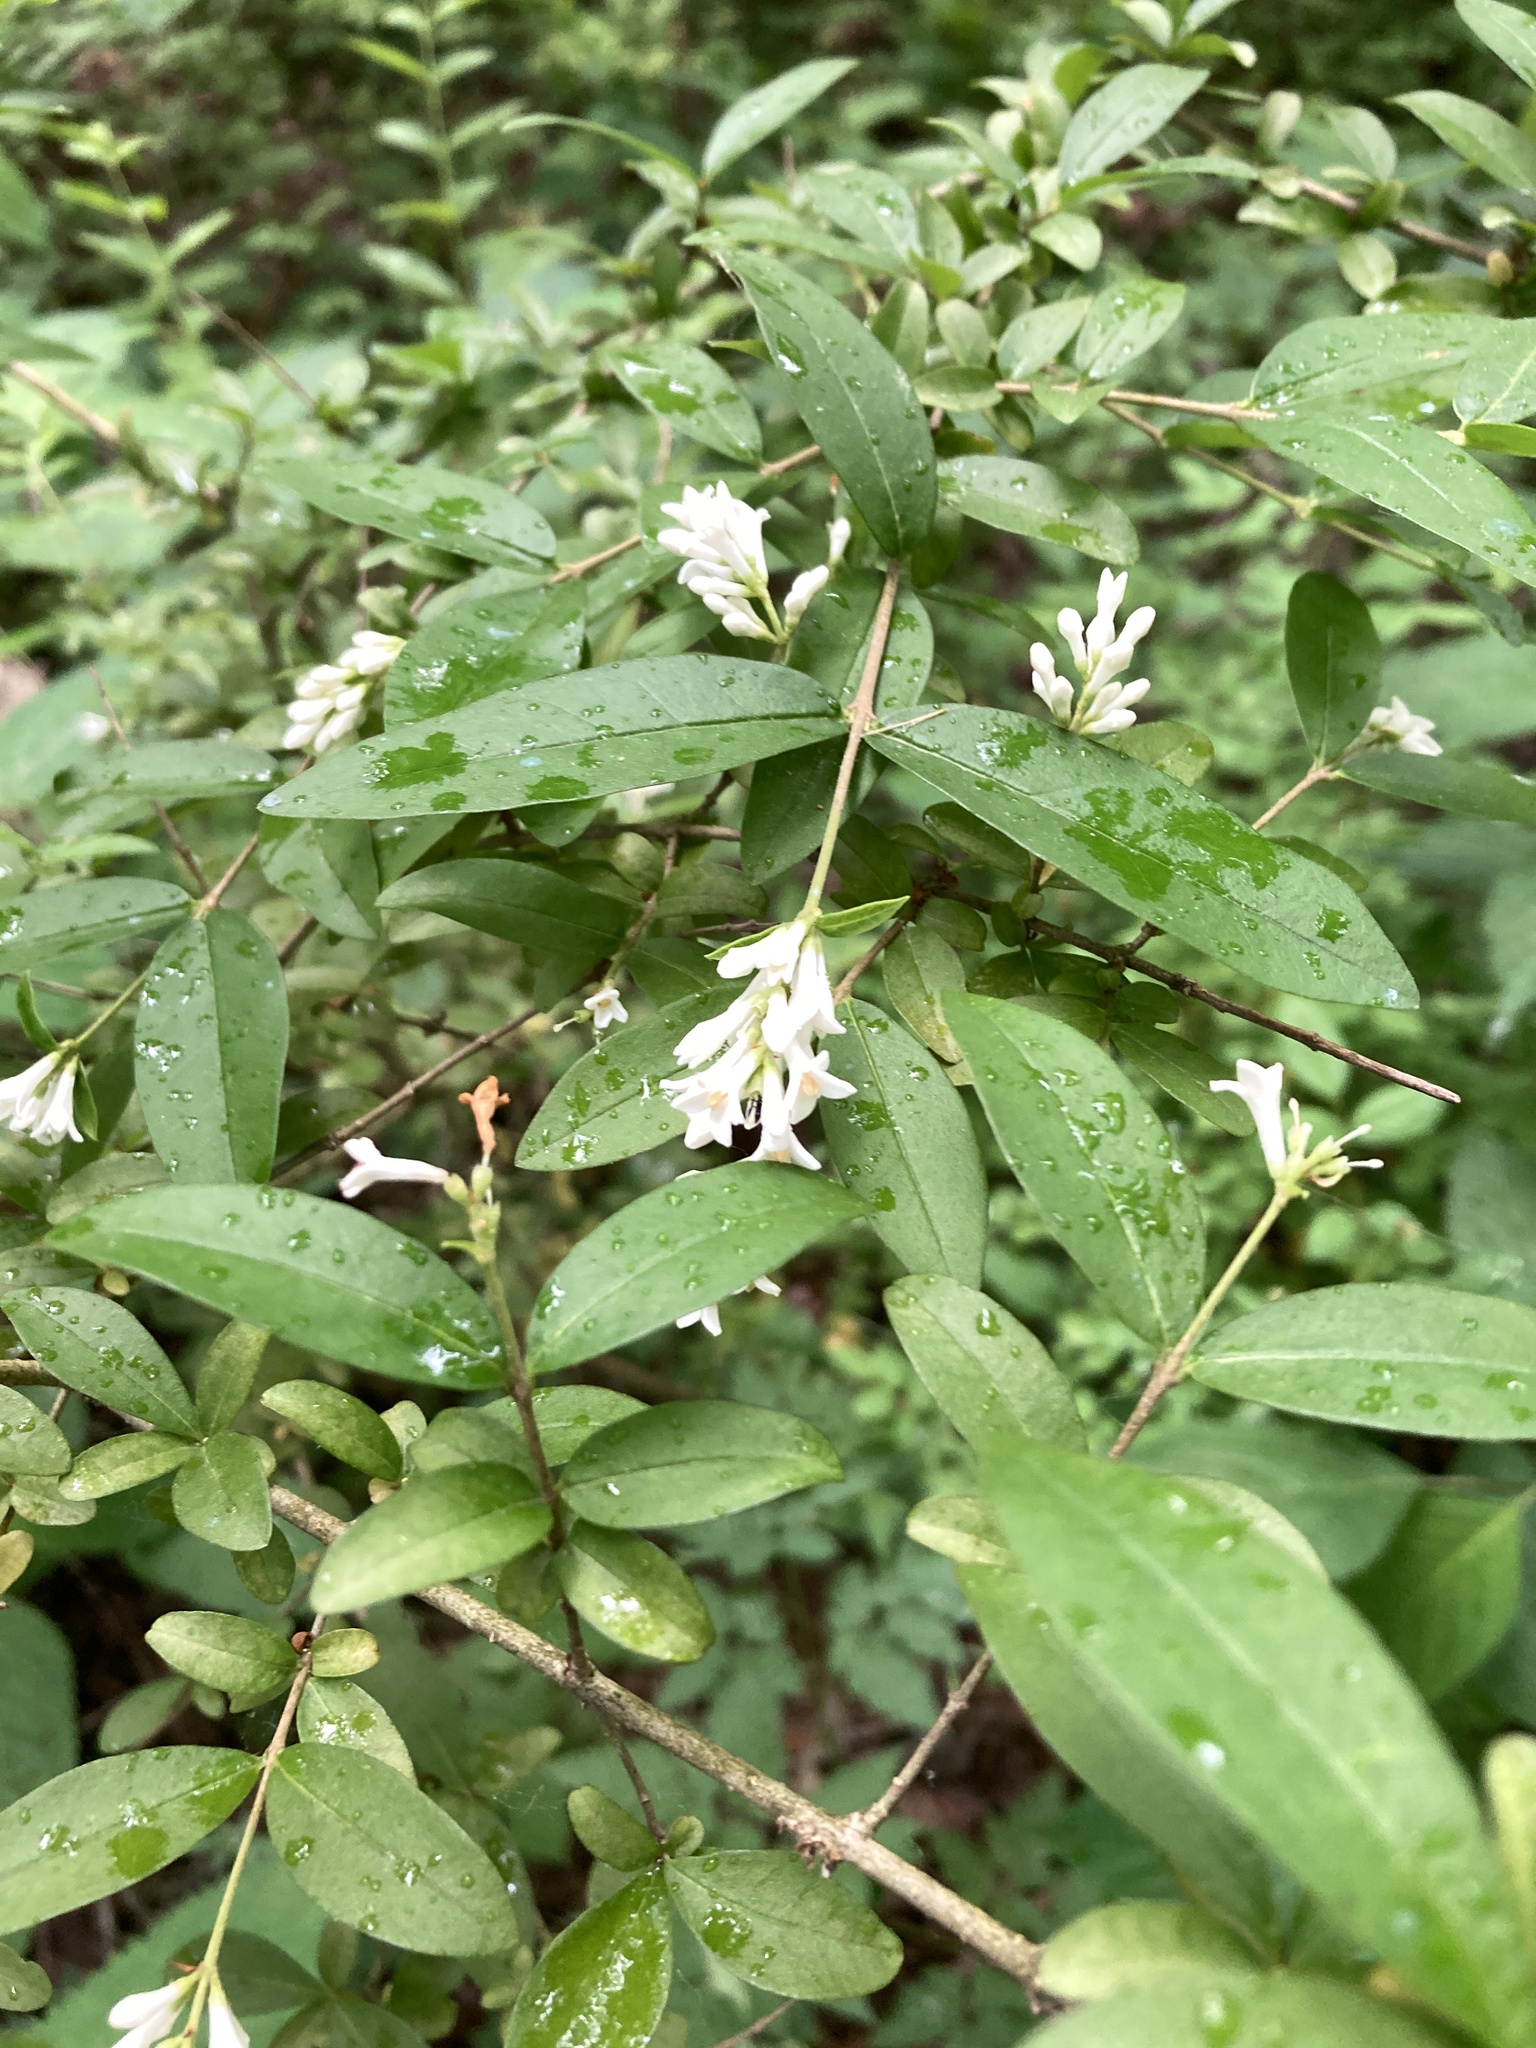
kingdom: Plantae
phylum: Tracheophyta
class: Magnoliopsida
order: Lamiales
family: Oleaceae
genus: Ligustrum
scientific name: Ligustrum obtusifolium
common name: Border privet
